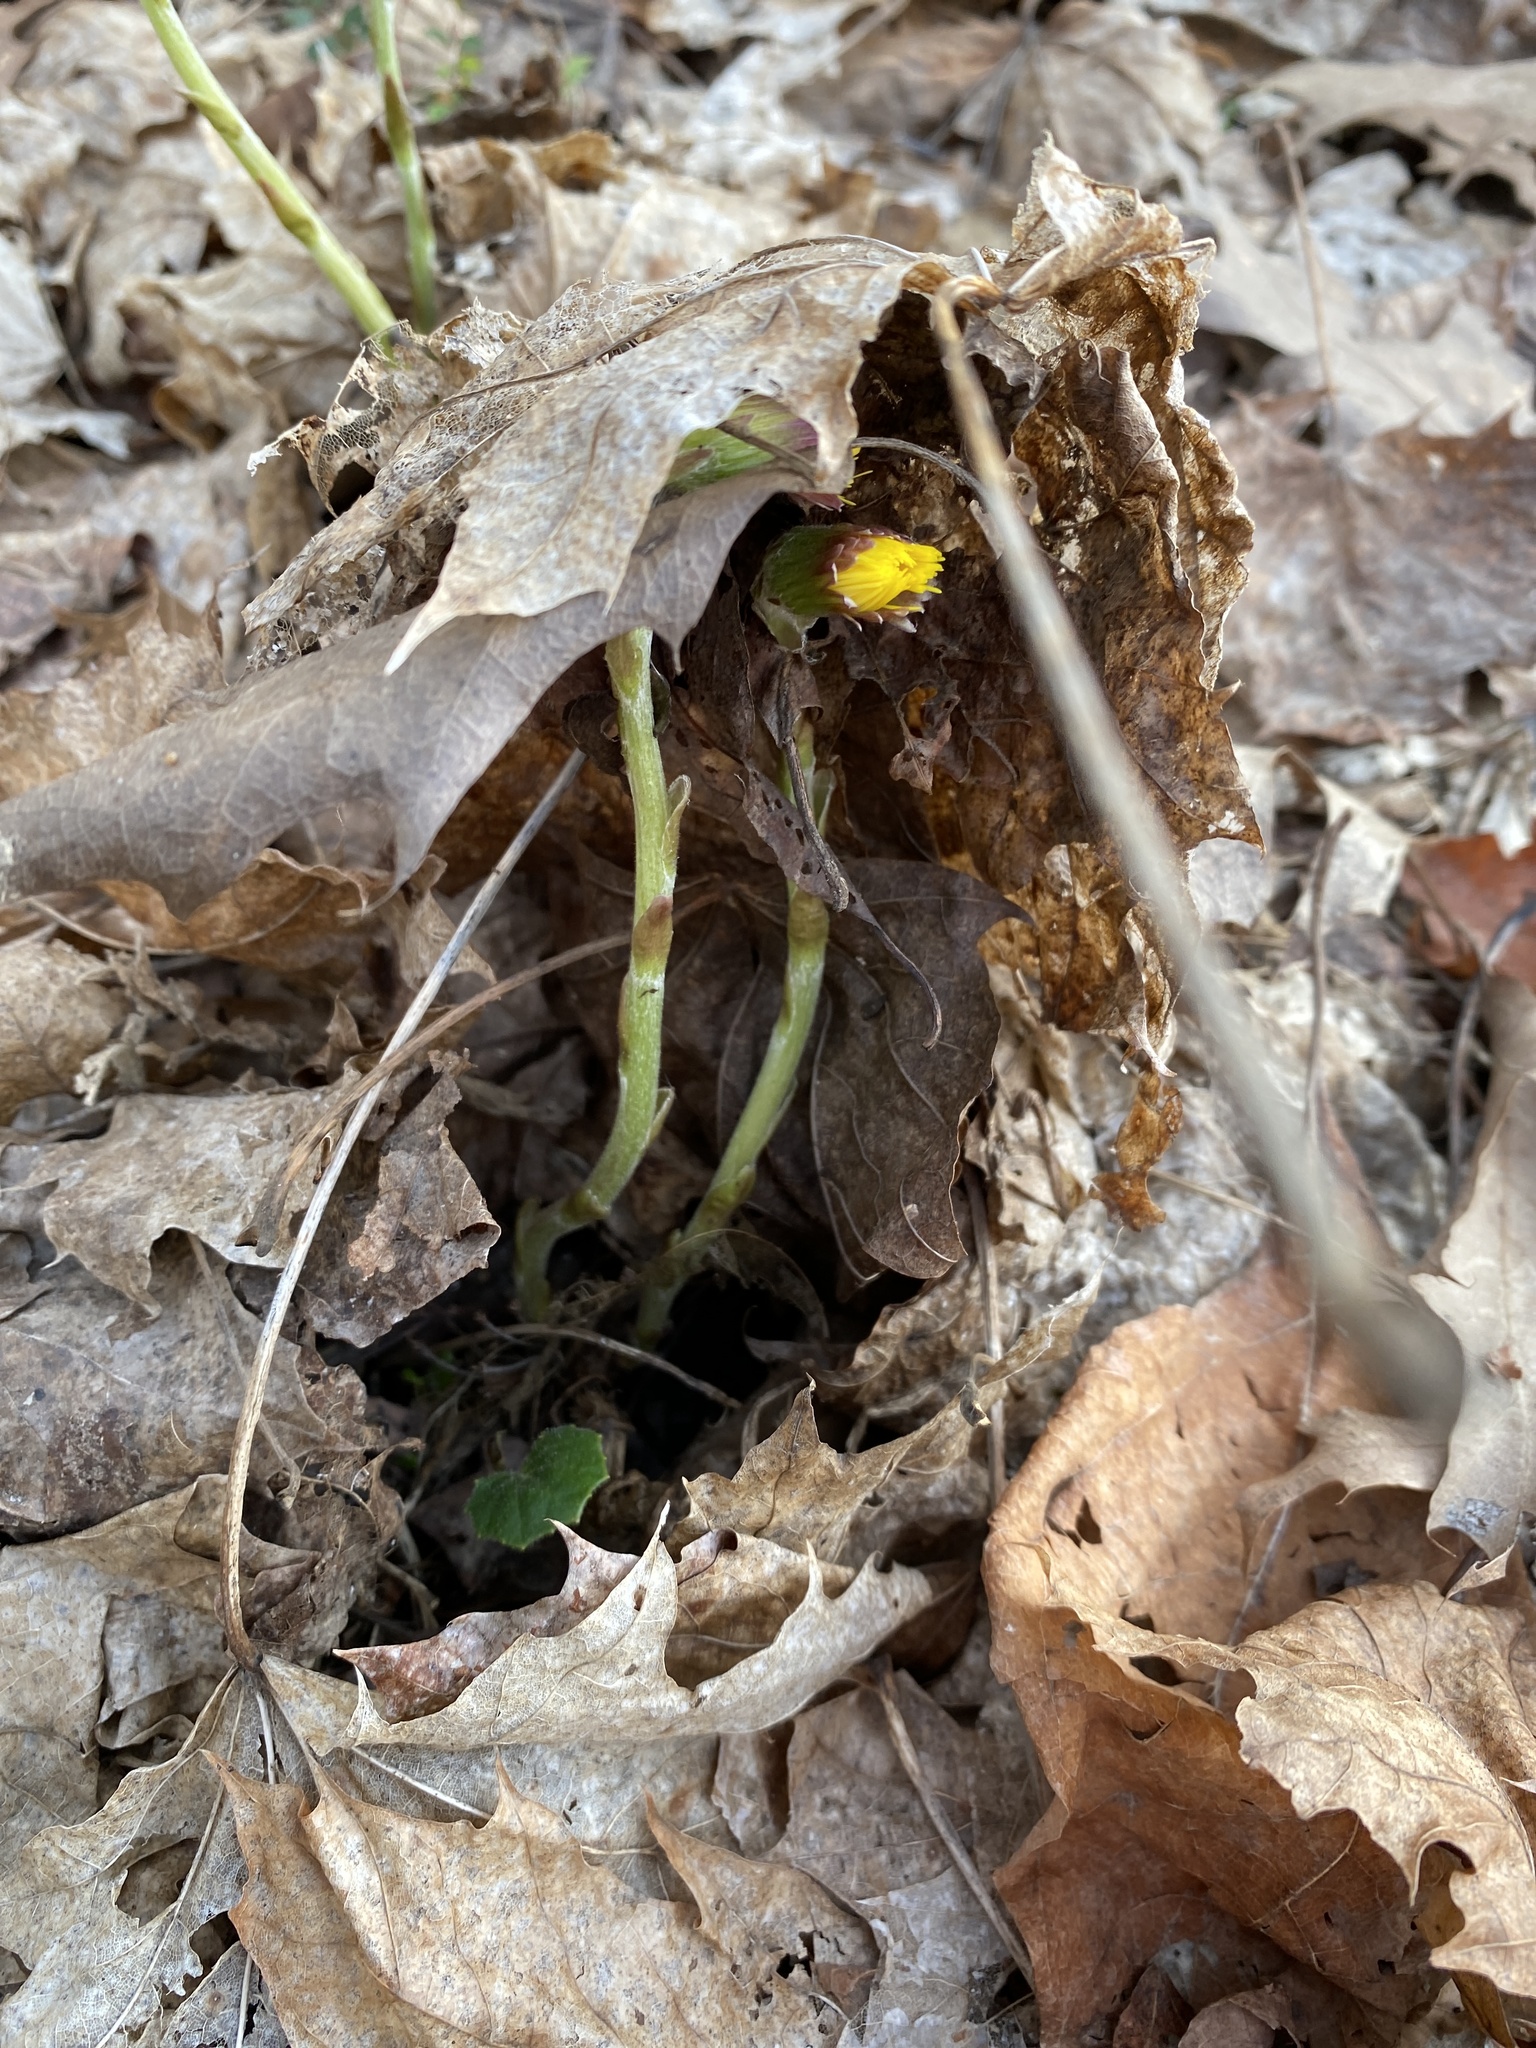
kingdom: Plantae
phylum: Tracheophyta
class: Magnoliopsida
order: Asterales
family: Asteraceae
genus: Tussilago
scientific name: Tussilago farfara
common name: Coltsfoot
